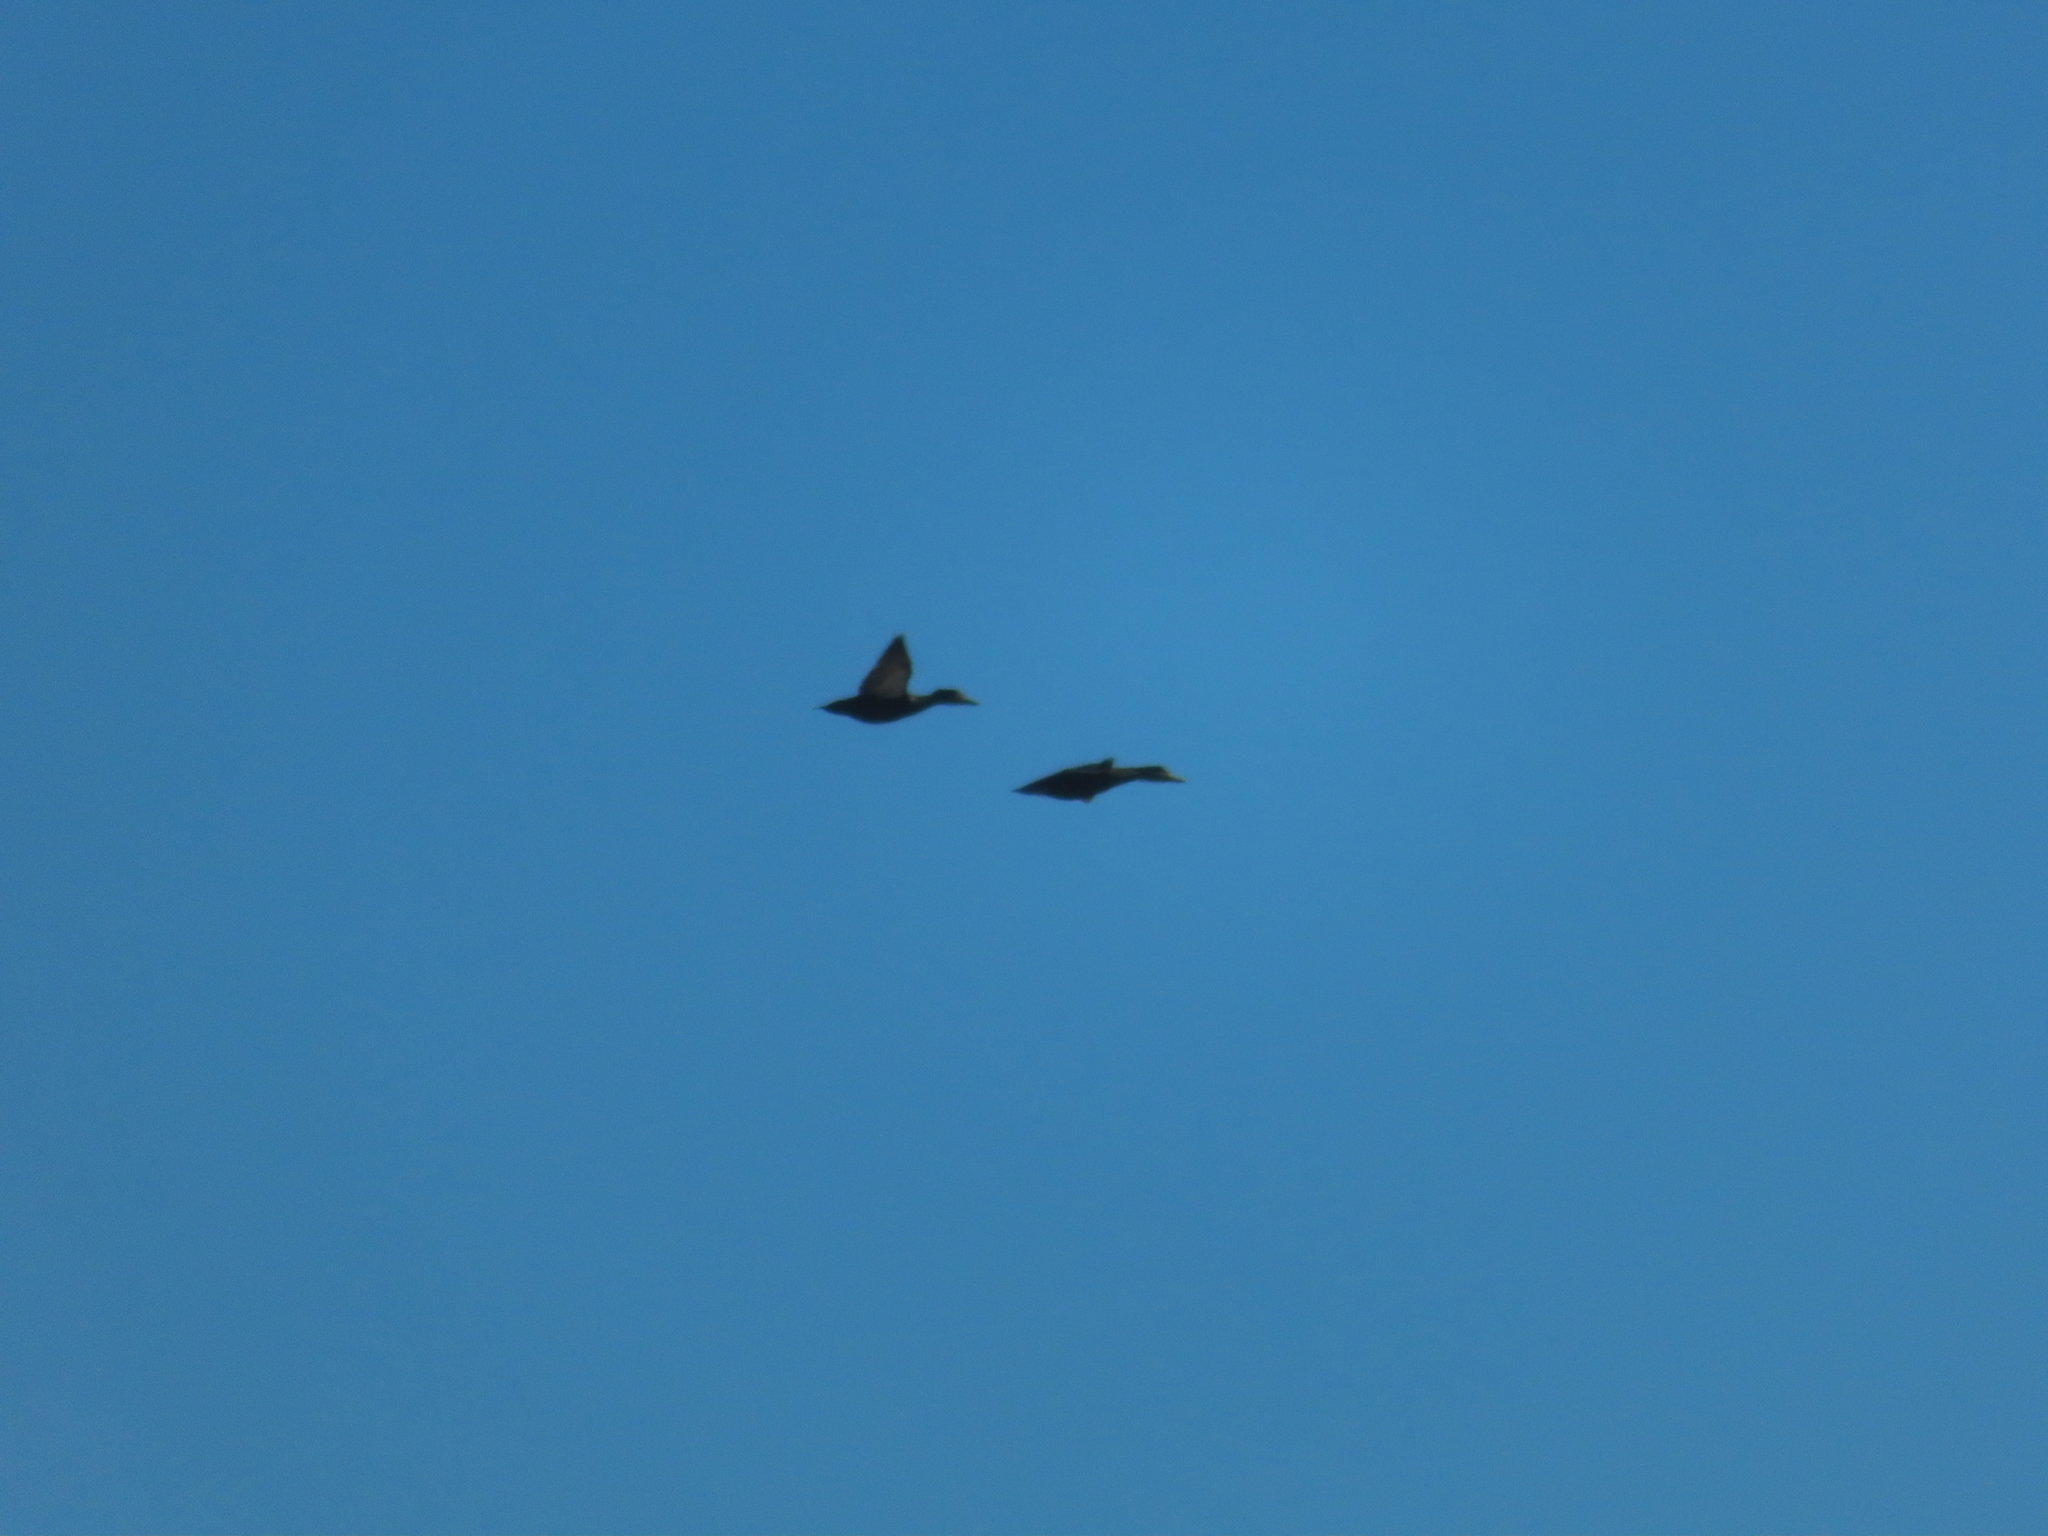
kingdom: Animalia
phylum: Chordata
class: Aves
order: Anseriformes
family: Anatidae
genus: Anas
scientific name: Anas rubripes
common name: American black duck
